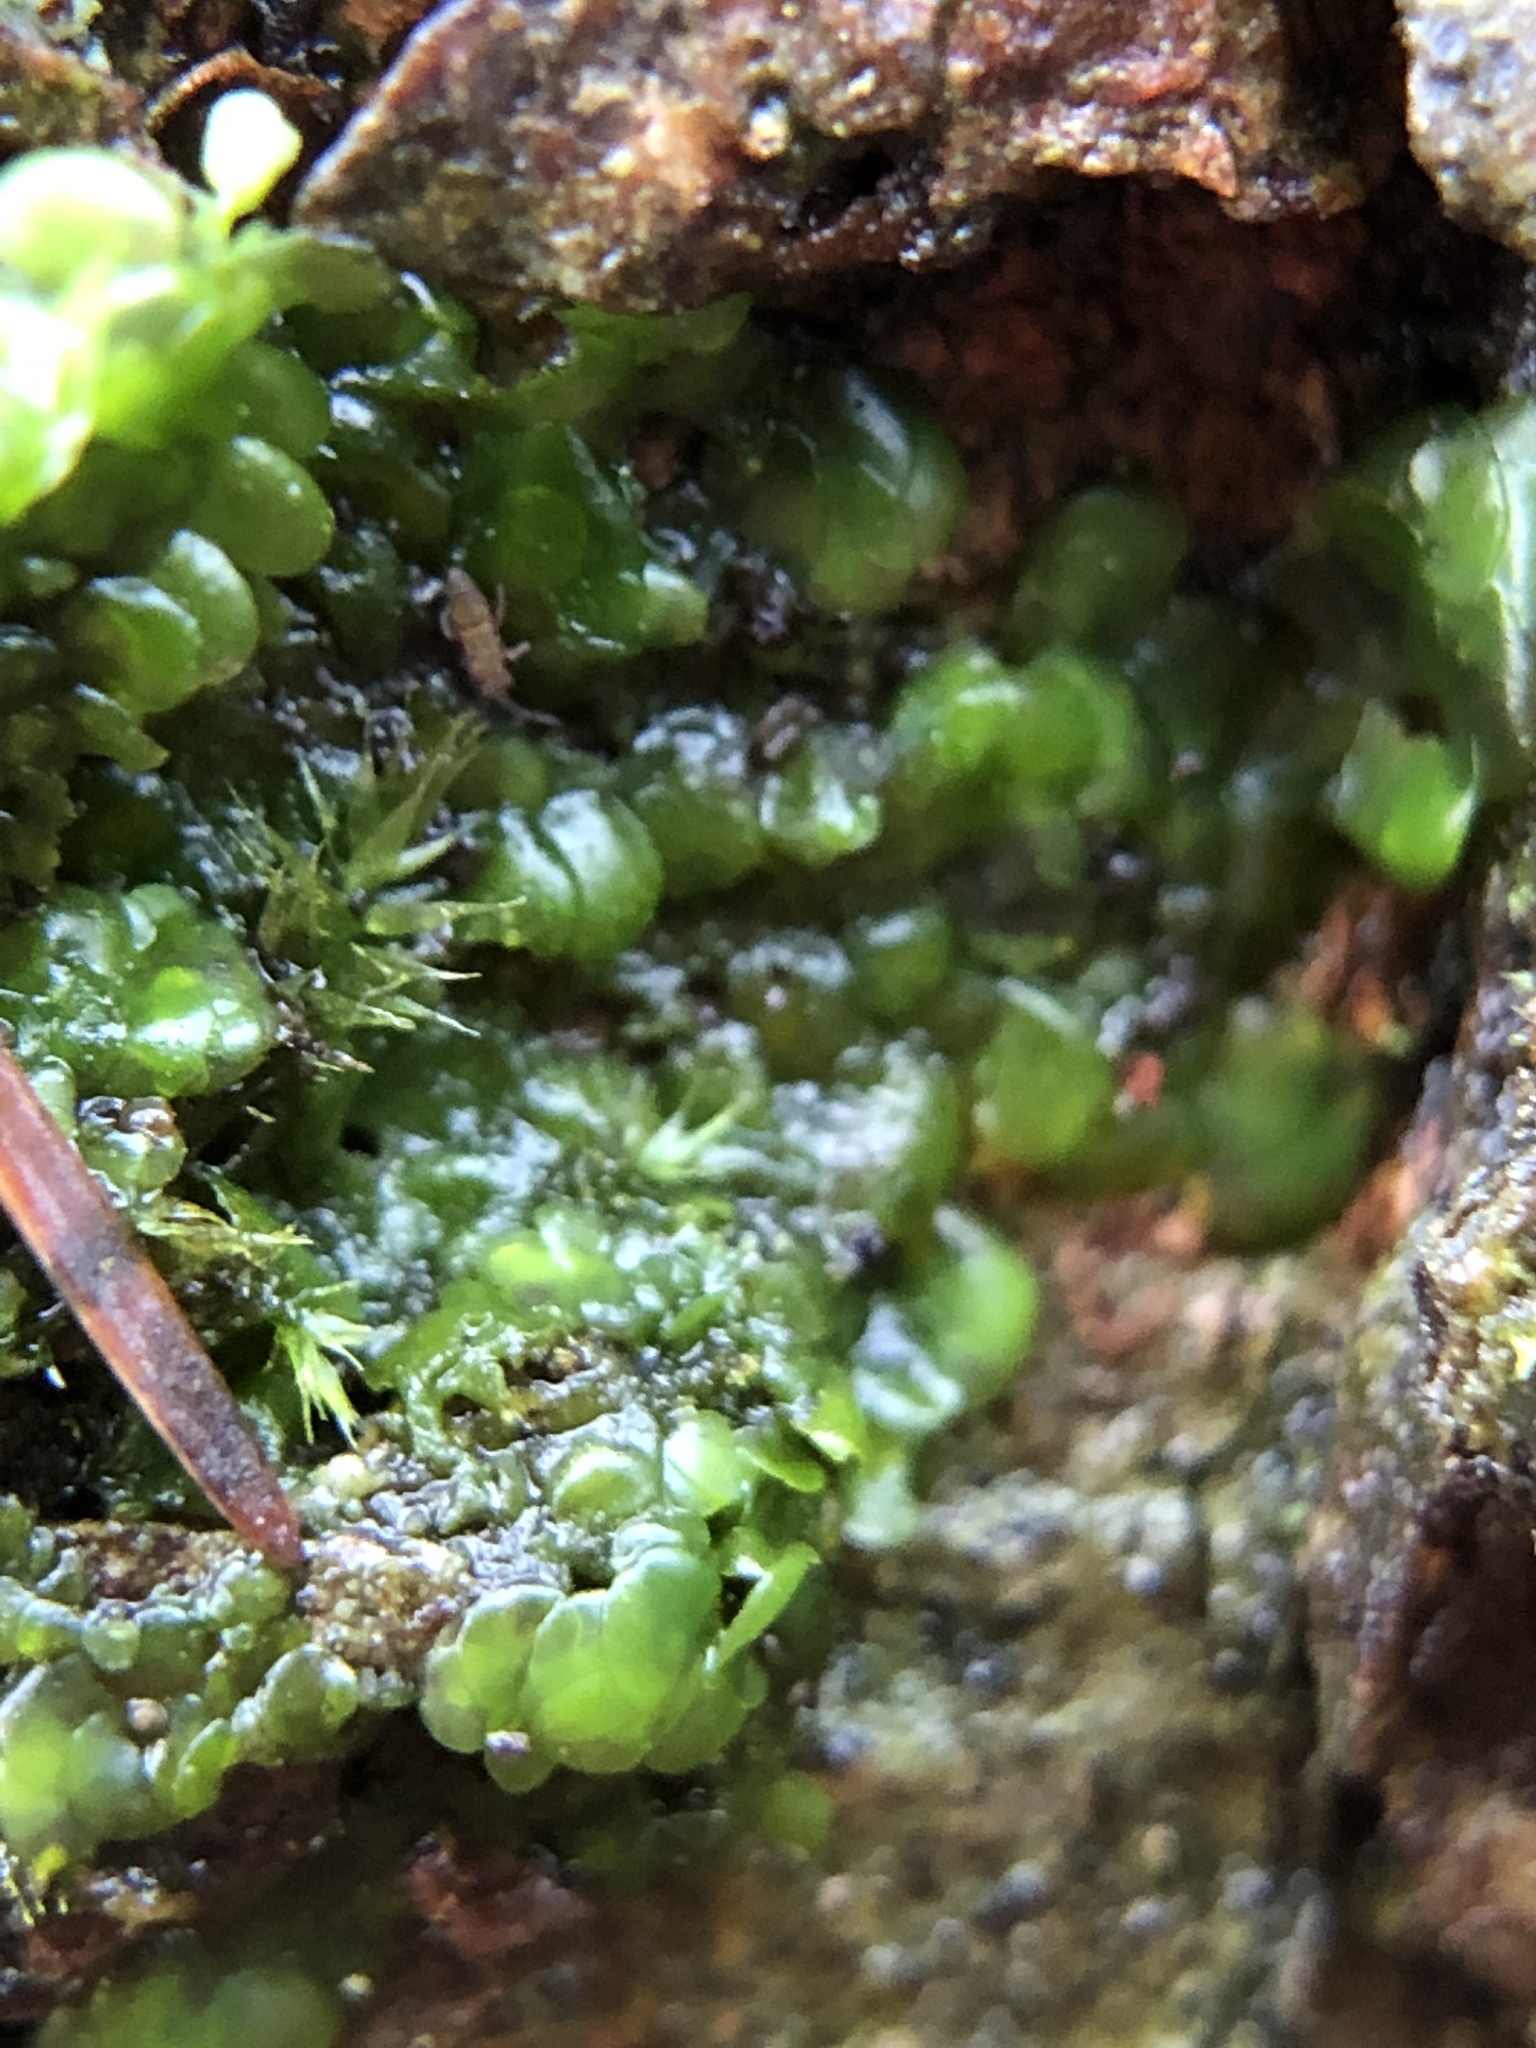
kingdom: Plantae
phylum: Marchantiophyta
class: Jungermanniopsida
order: Porellales
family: Radulaceae
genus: Radula
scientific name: Radula complanata
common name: Flat-leaved scalewort
